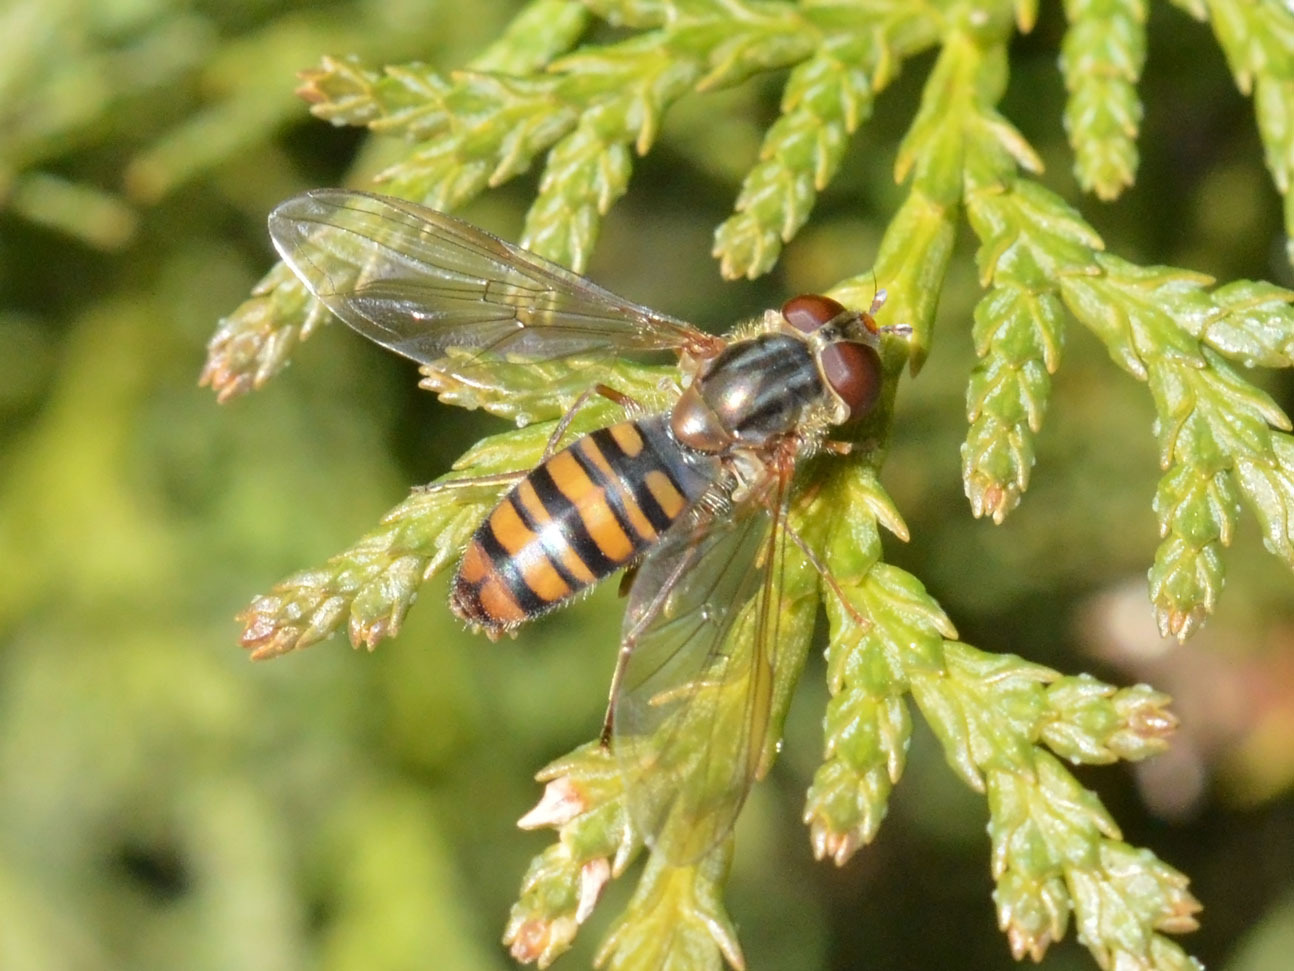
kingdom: Animalia
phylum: Arthropoda
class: Insecta
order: Diptera
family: Syrphidae
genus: Episyrphus
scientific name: Episyrphus balteatus
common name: Marmalade hoverfly
